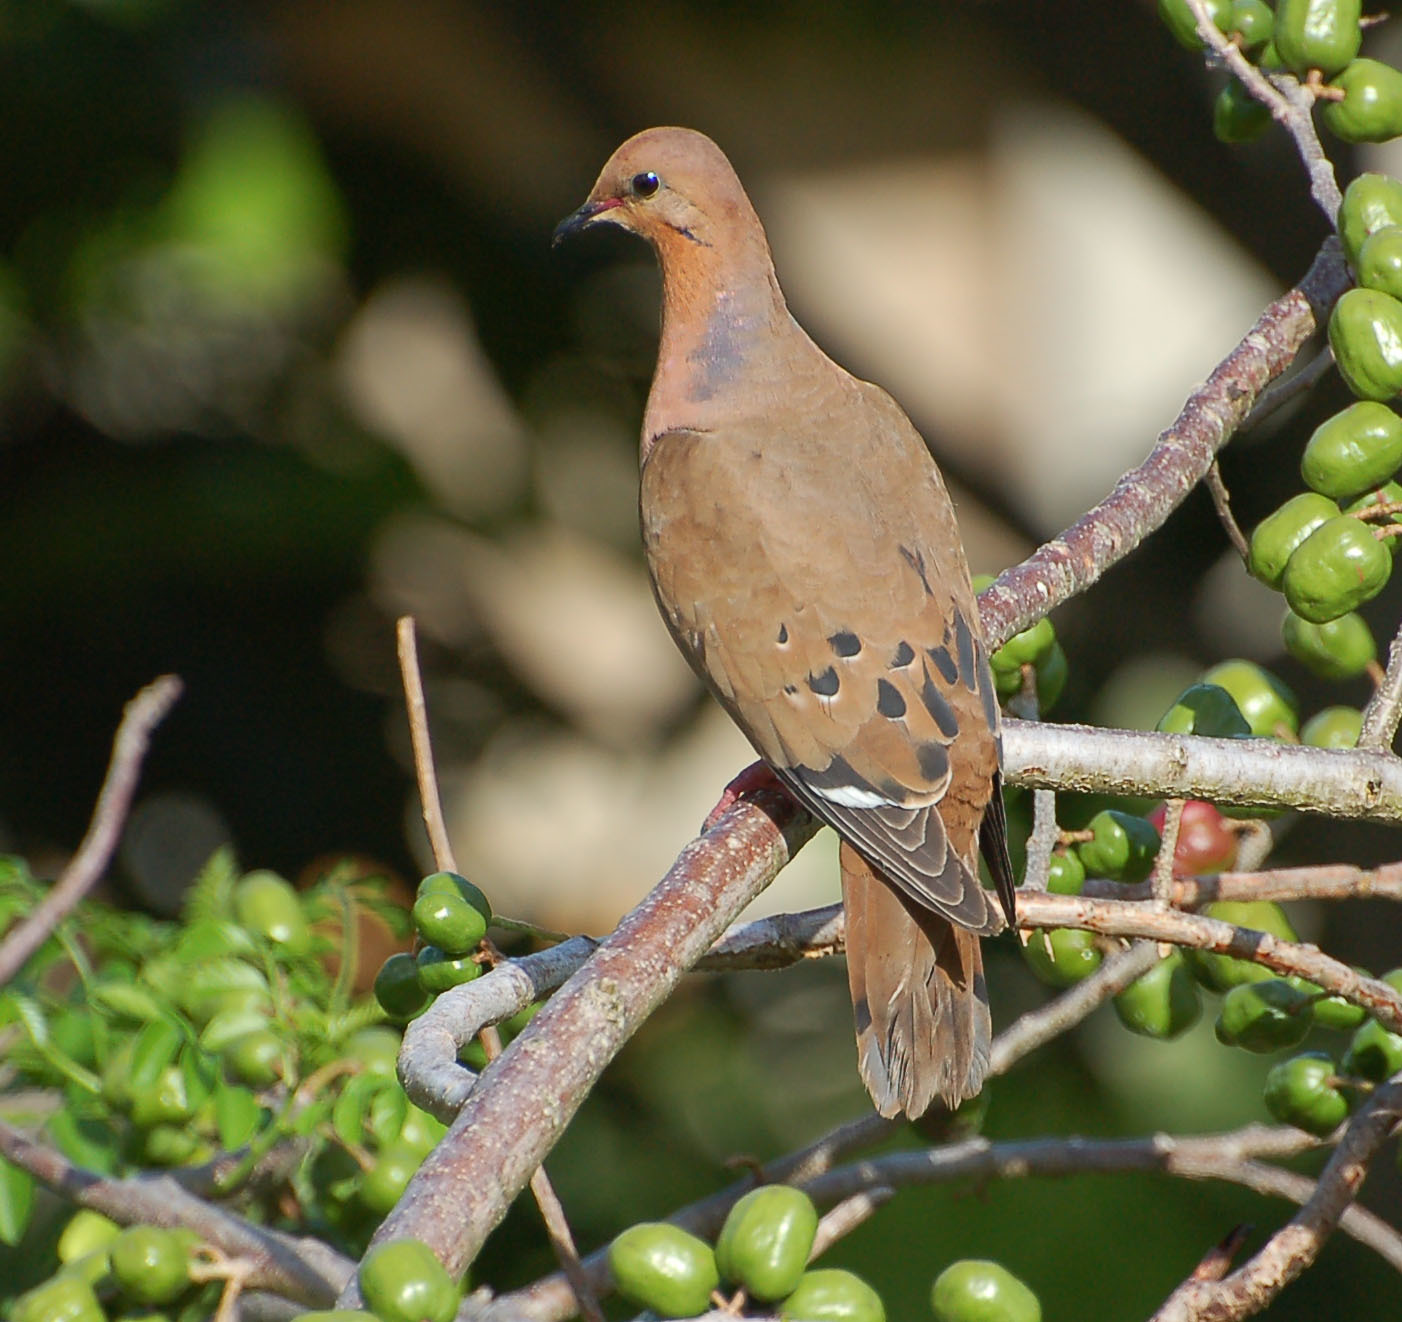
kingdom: Animalia
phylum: Chordata
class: Aves
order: Columbiformes
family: Columbidae
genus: Zenaida
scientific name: Zenaida aurita
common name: Zenaida dove
